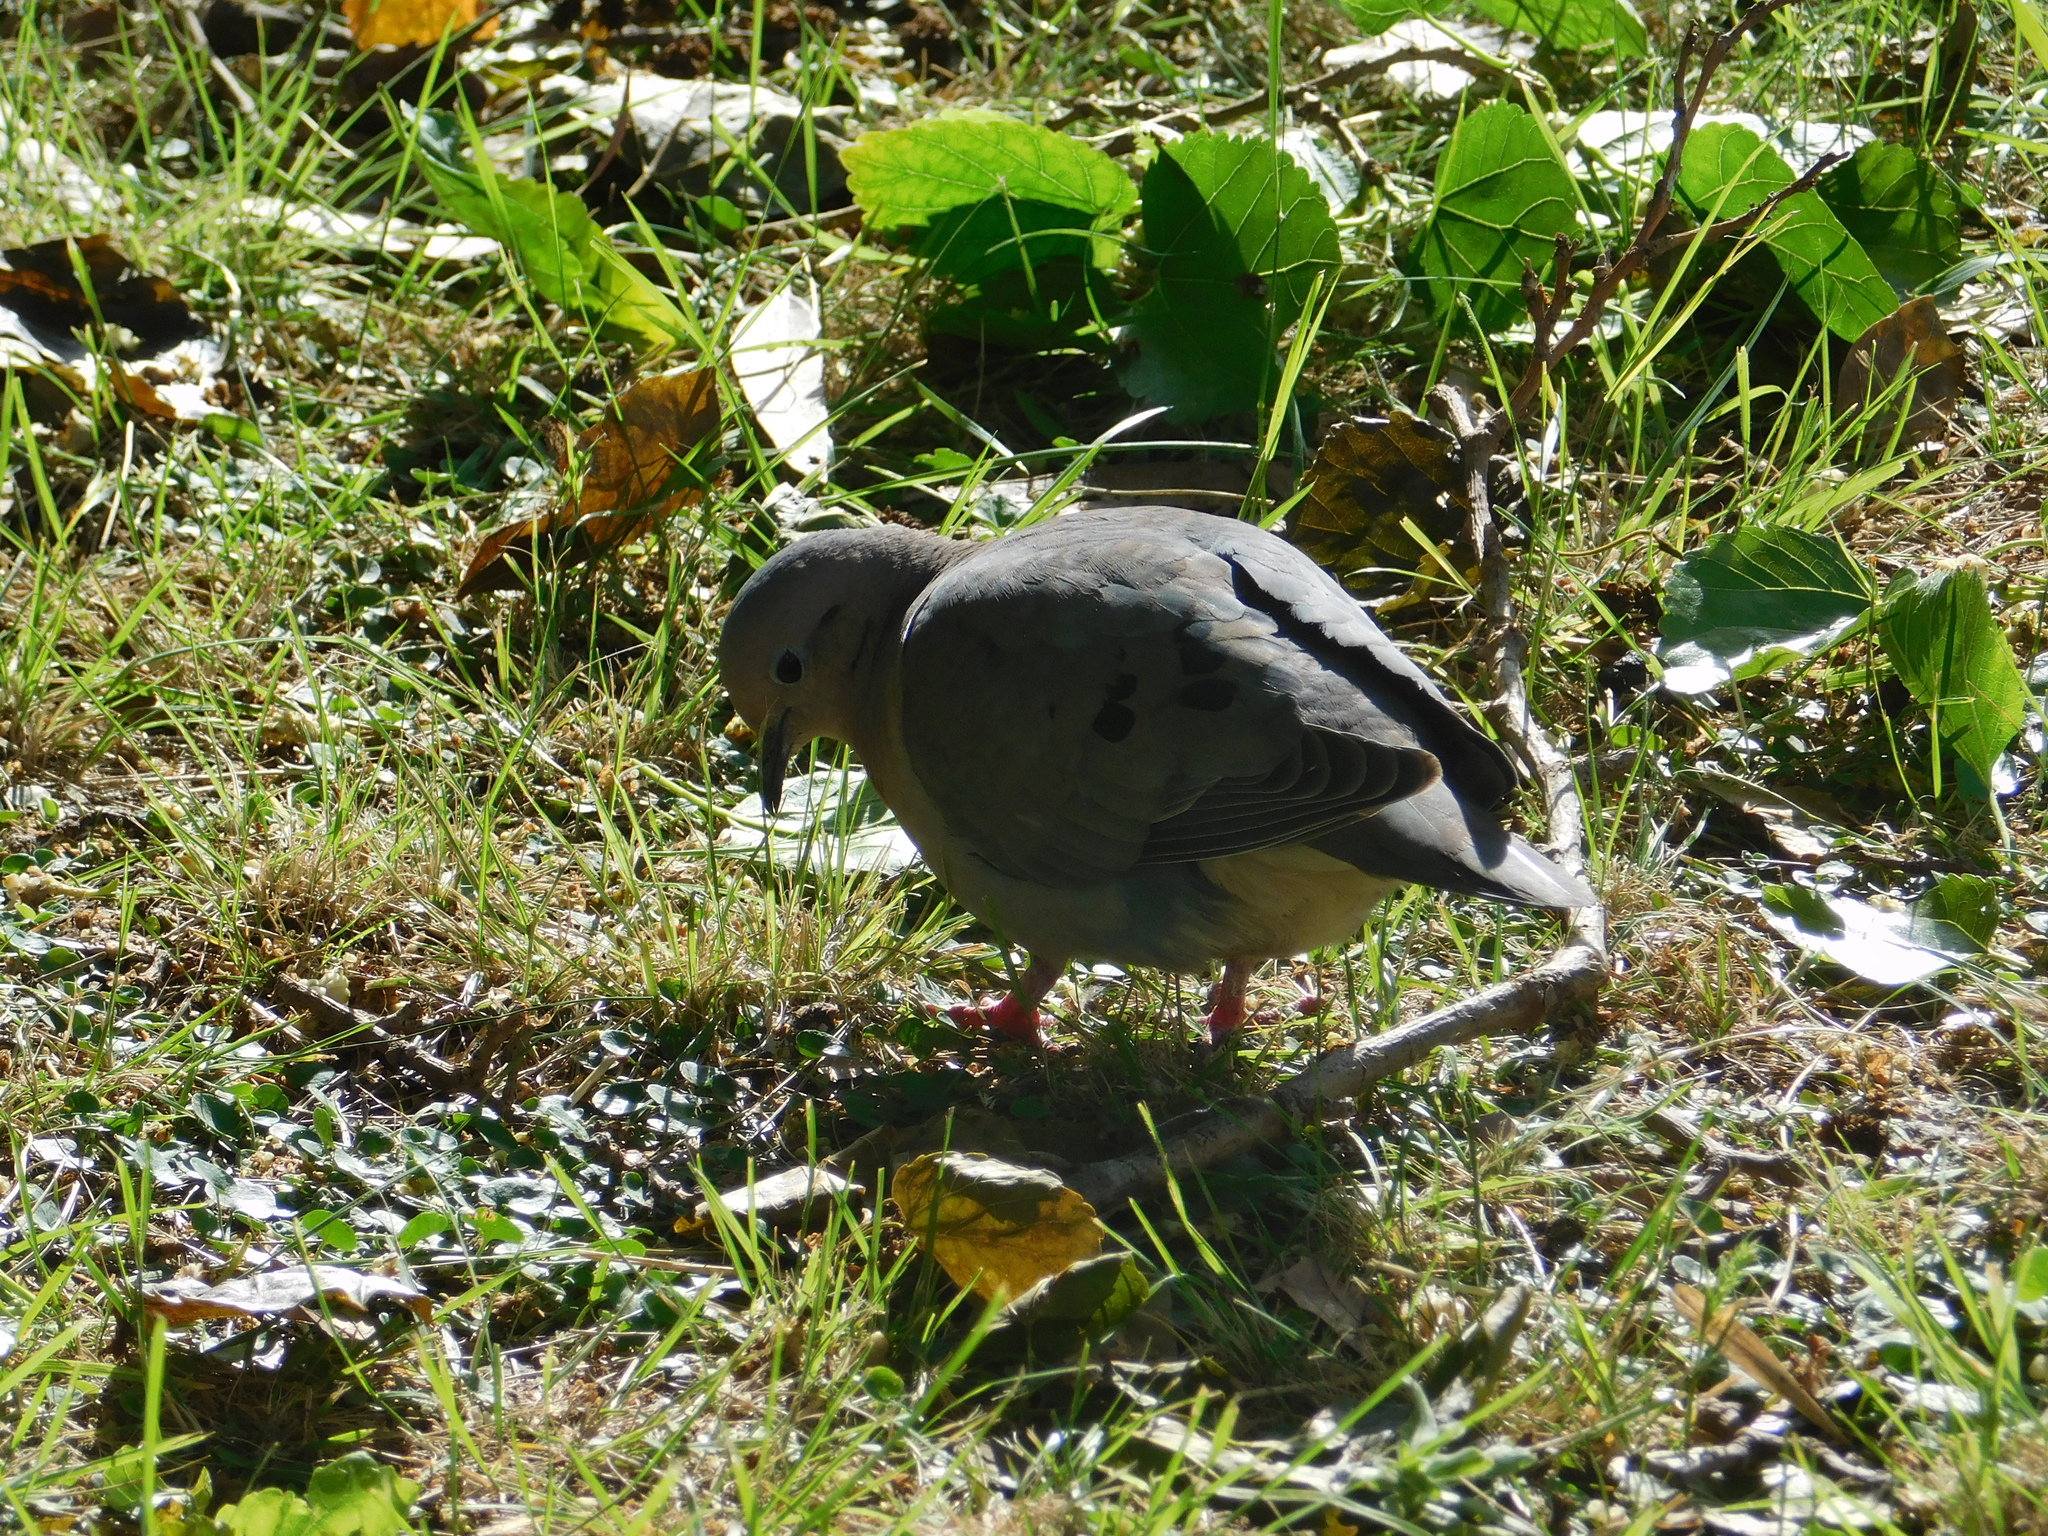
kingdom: Animalia
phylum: Chordata
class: Aves
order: Columbiformes
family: Columbidae
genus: Zenaida
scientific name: Zenaida auriculata
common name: Eared dove
